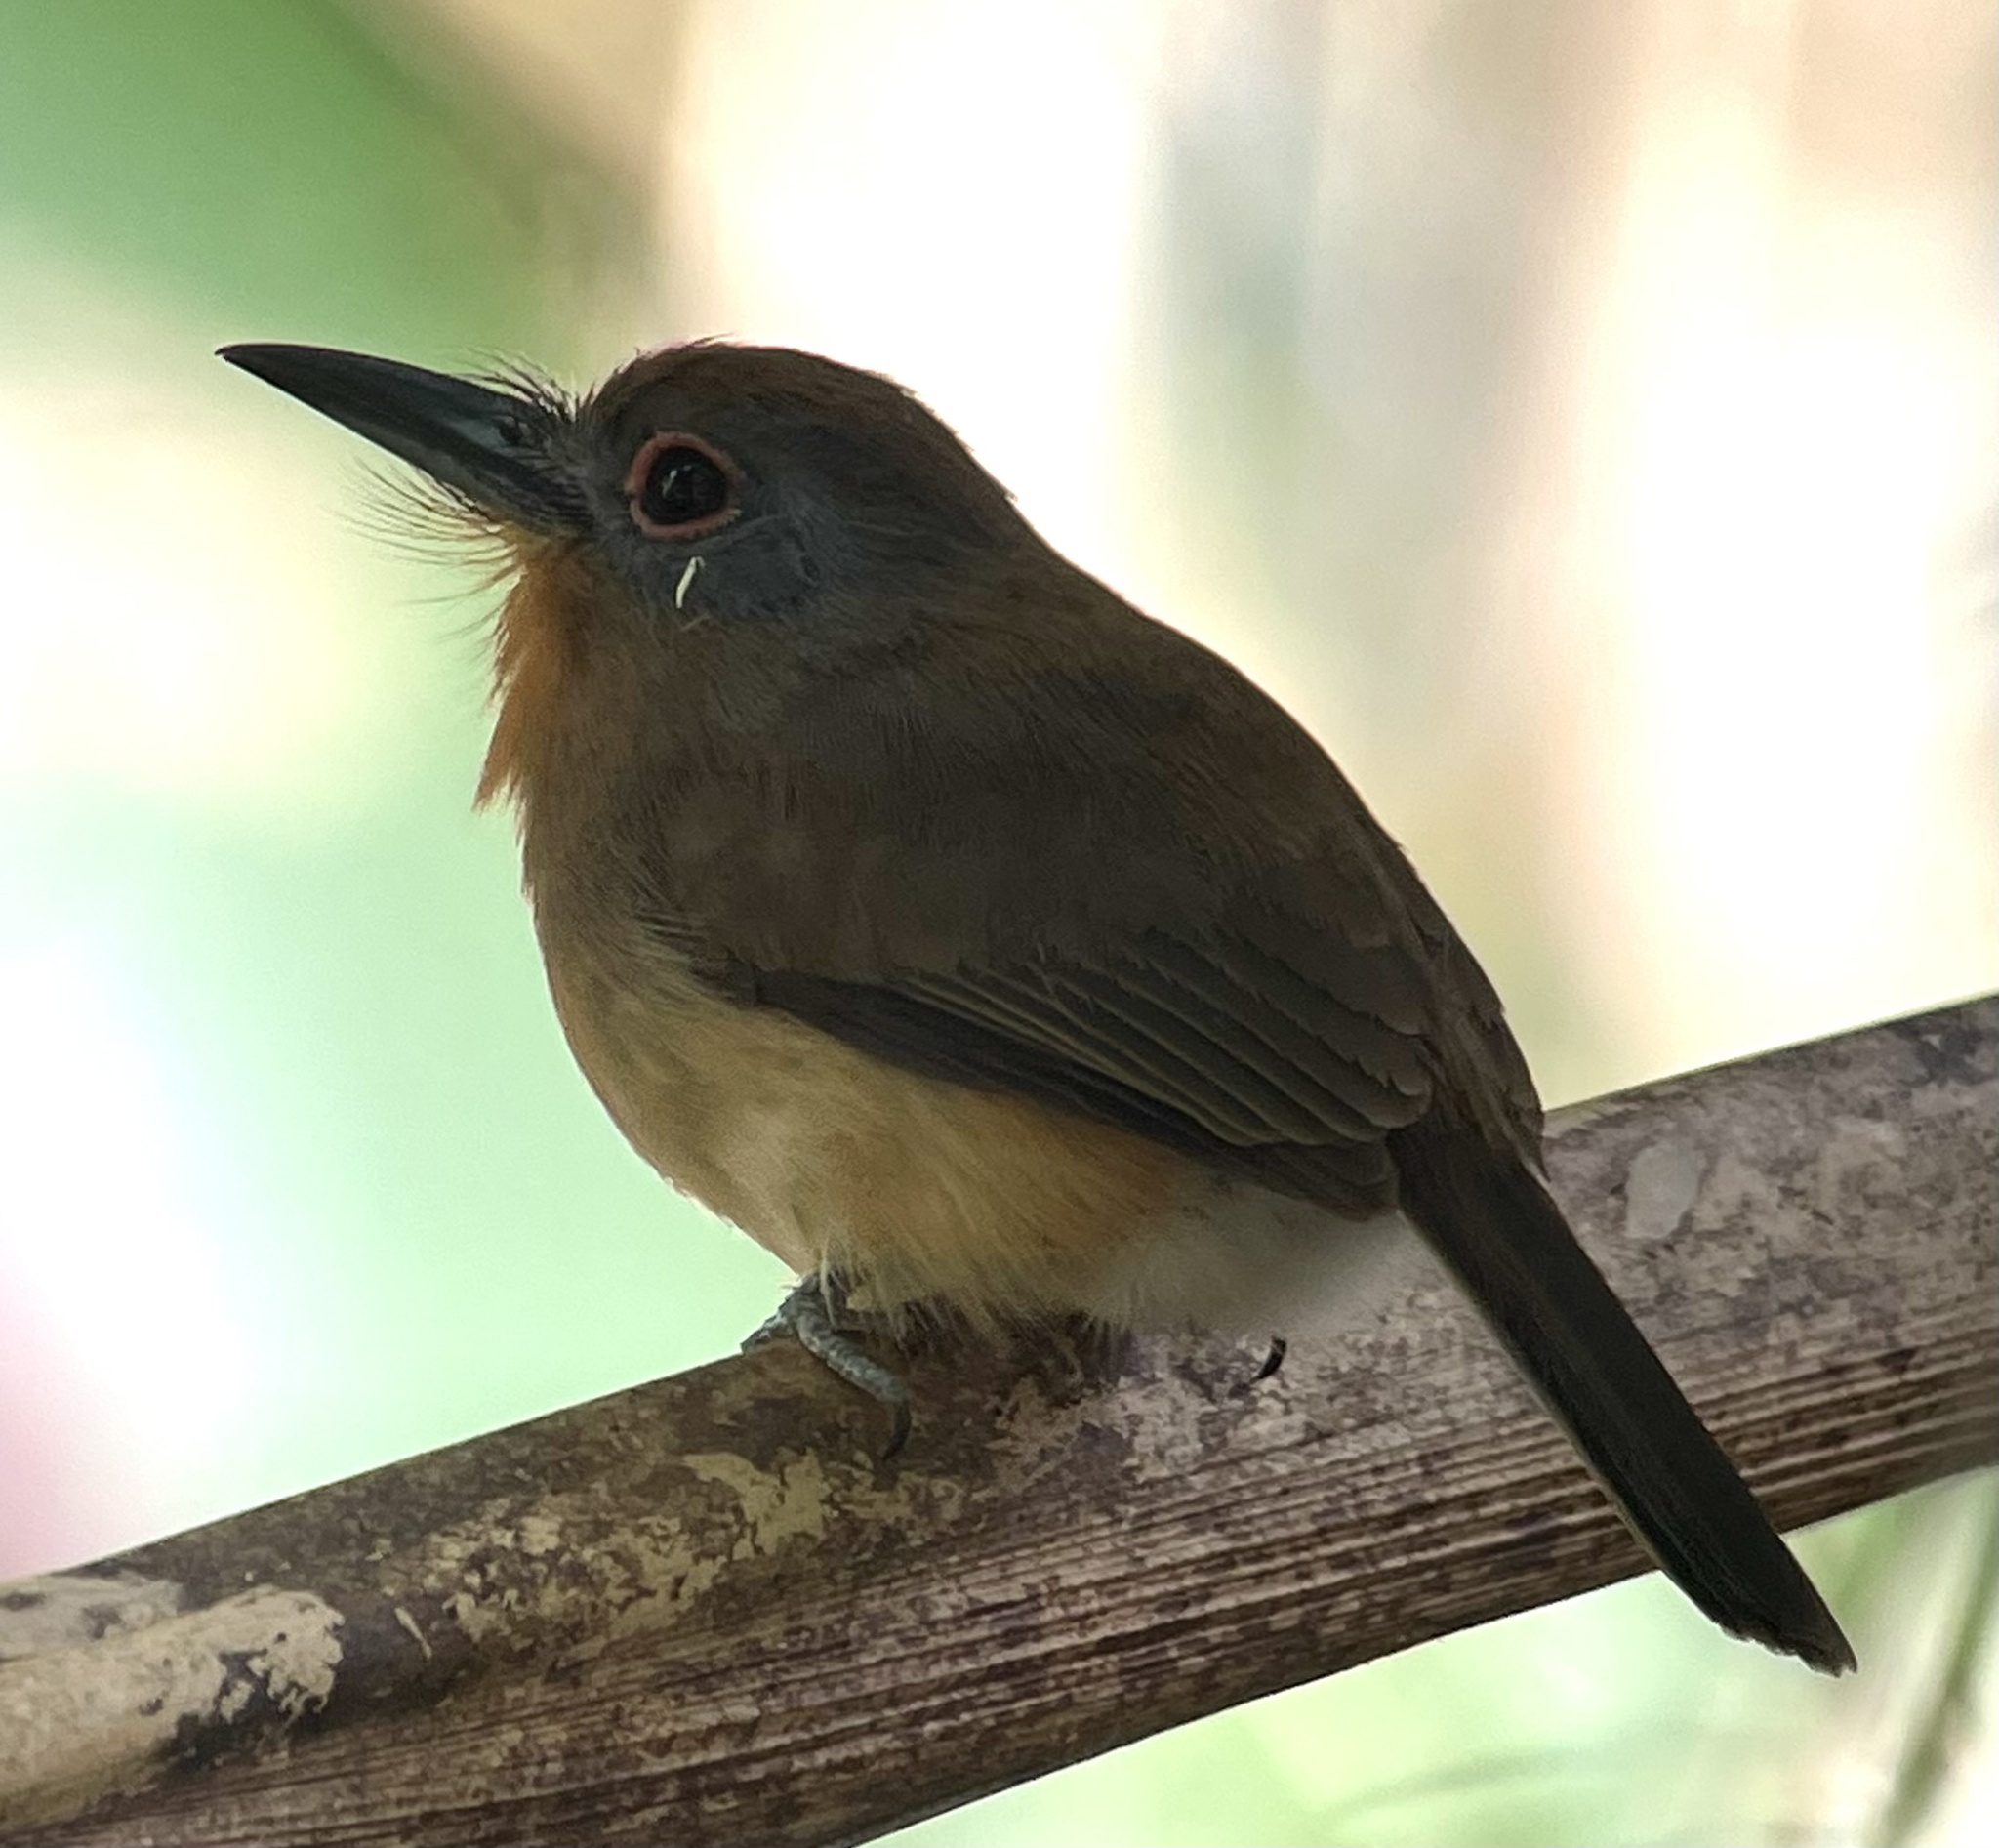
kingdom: Animalia
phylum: Chordata
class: Aves
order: Piciformes
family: Bucconidae
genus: Nonnula
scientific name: Nonnula frontalis
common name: Grey-cheeked nunlet
